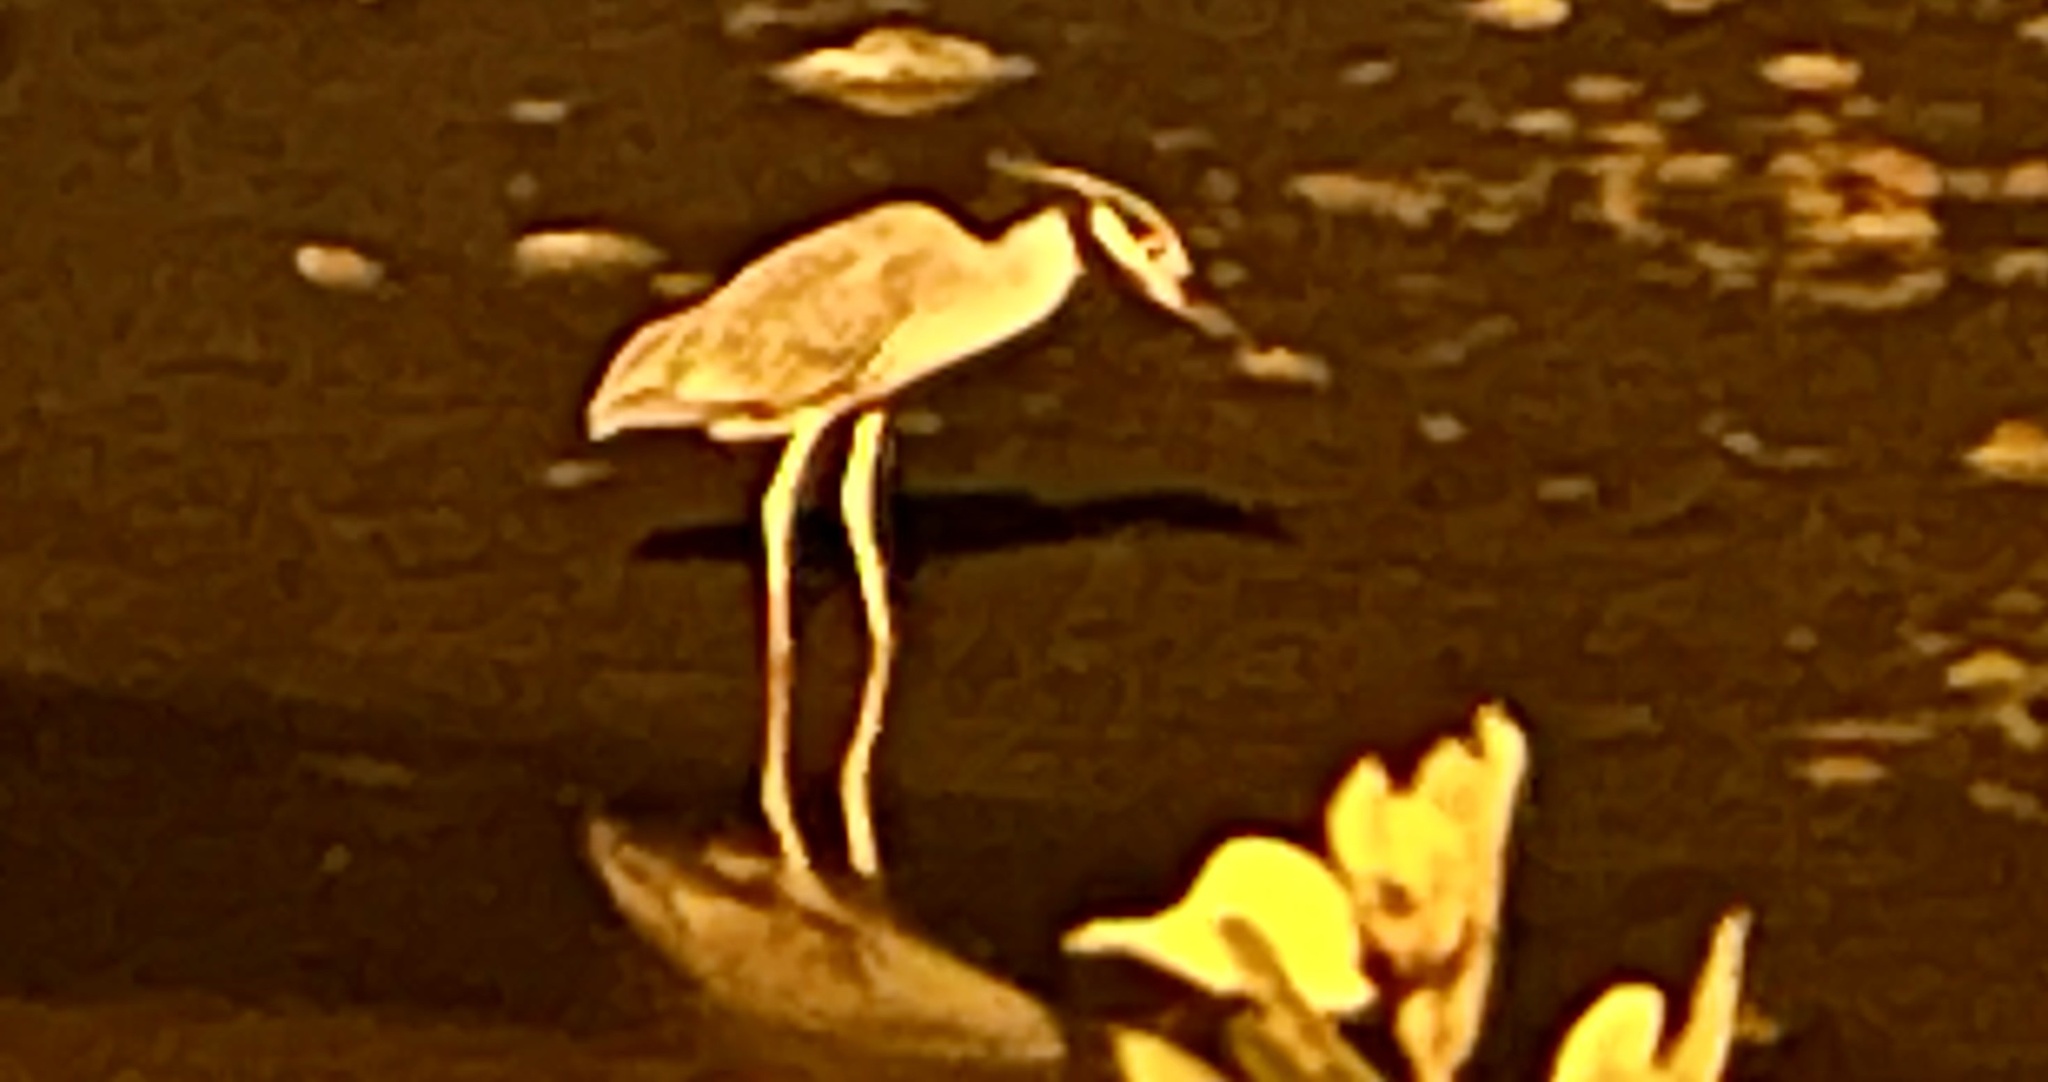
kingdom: Animalia
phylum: Chordata
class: Aves
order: Pelecaniformes
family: Ardeidae
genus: Nyctanassa
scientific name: Nyctanassa violacea
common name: Yellow-crowned night heron
